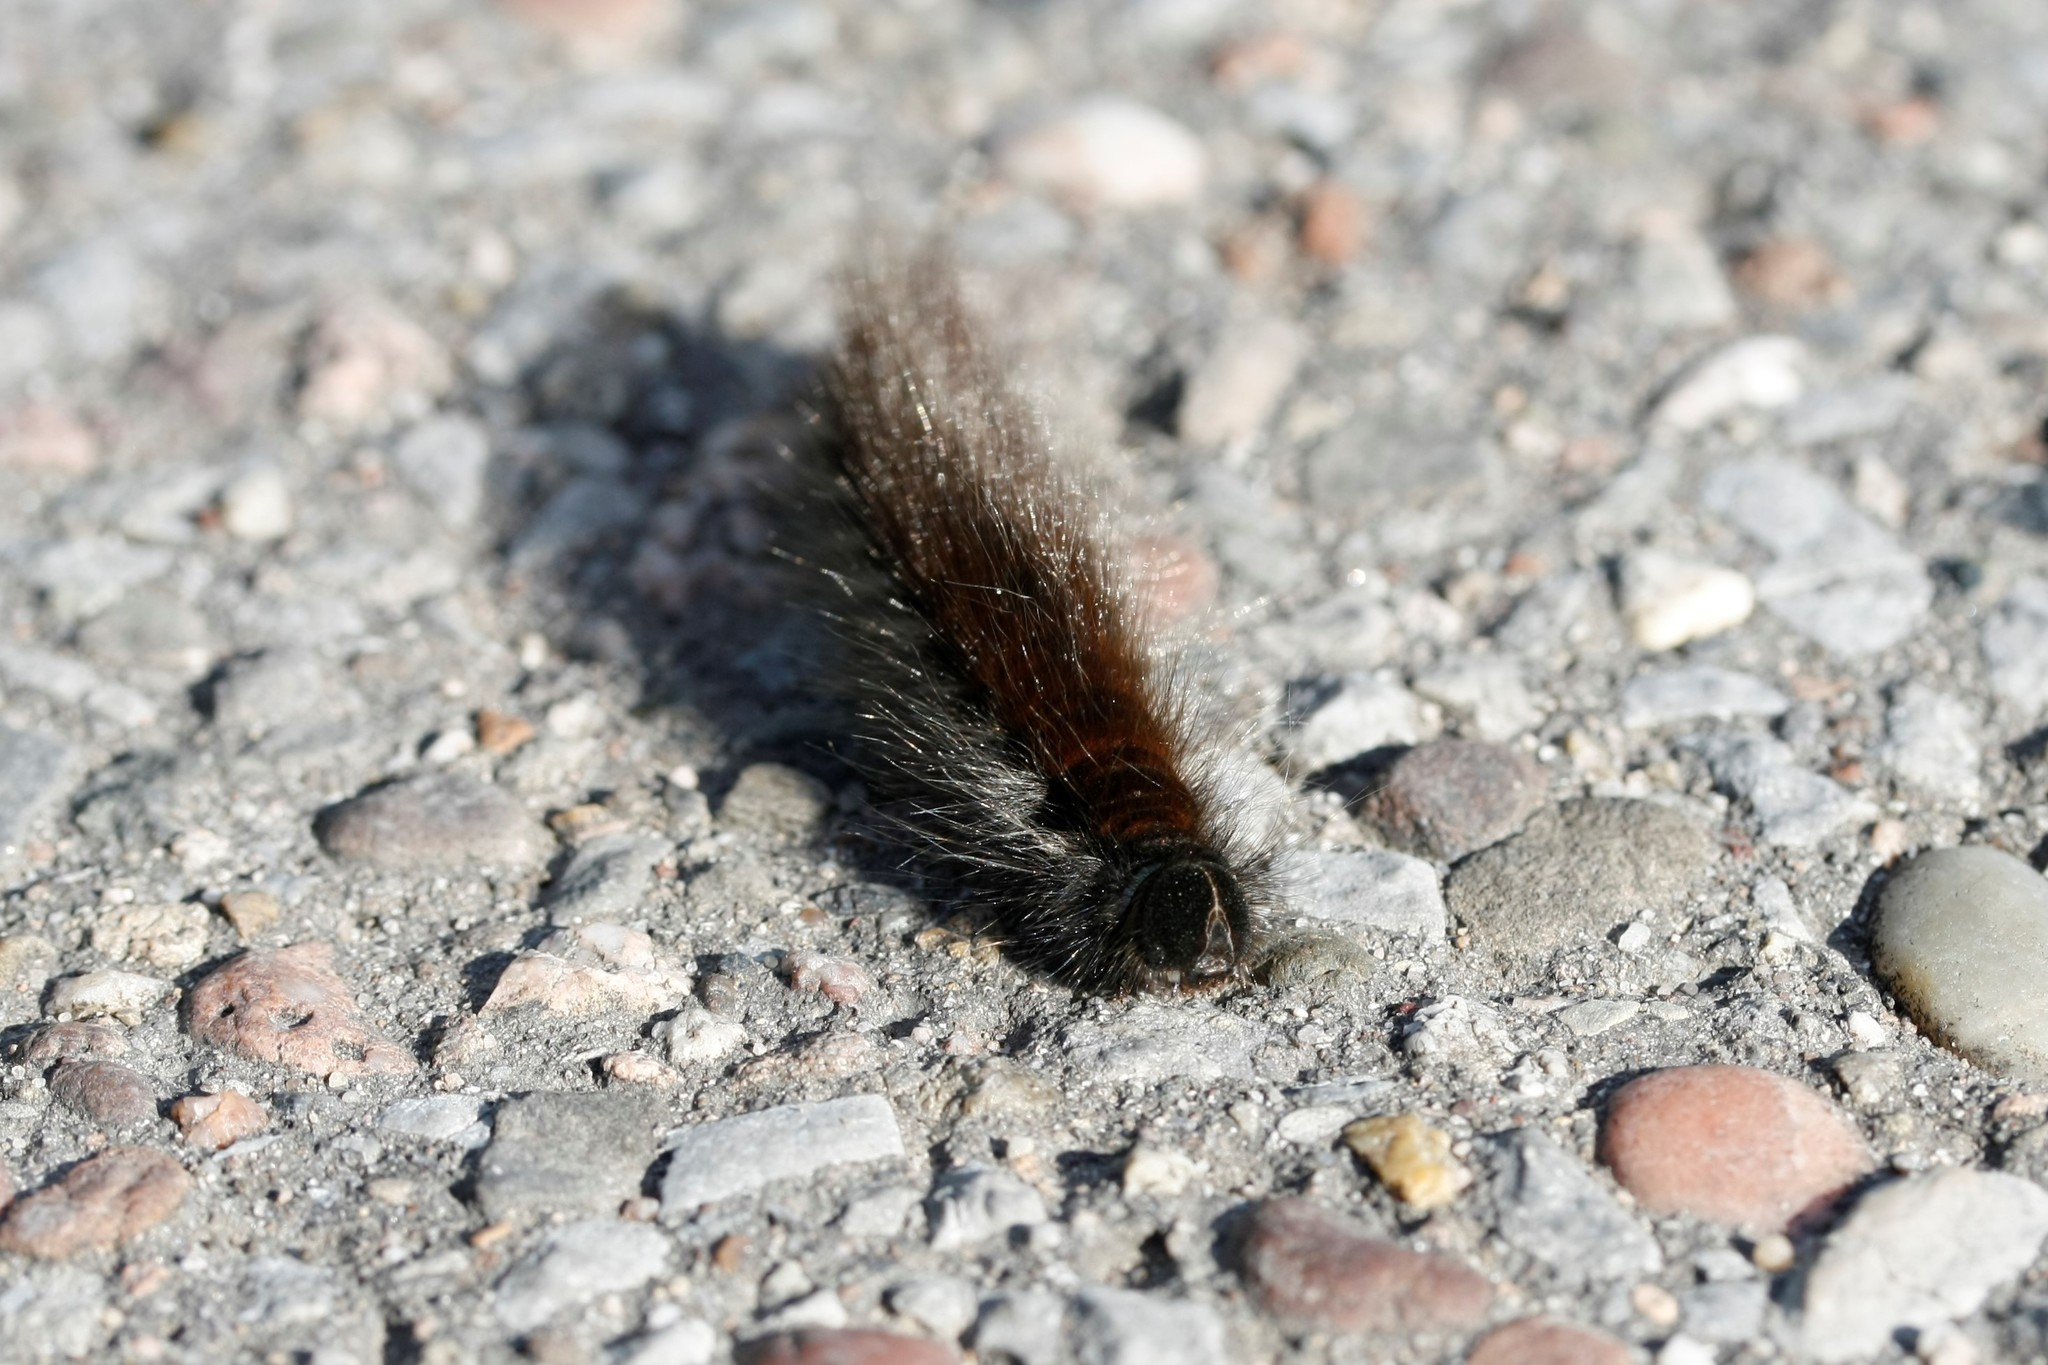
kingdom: Animalia
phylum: Arthropoda
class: Insecta
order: Lepidoptera
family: Lasiocampidae
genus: Macrothylacia
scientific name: Macrothylacia rubi
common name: Fox moth
